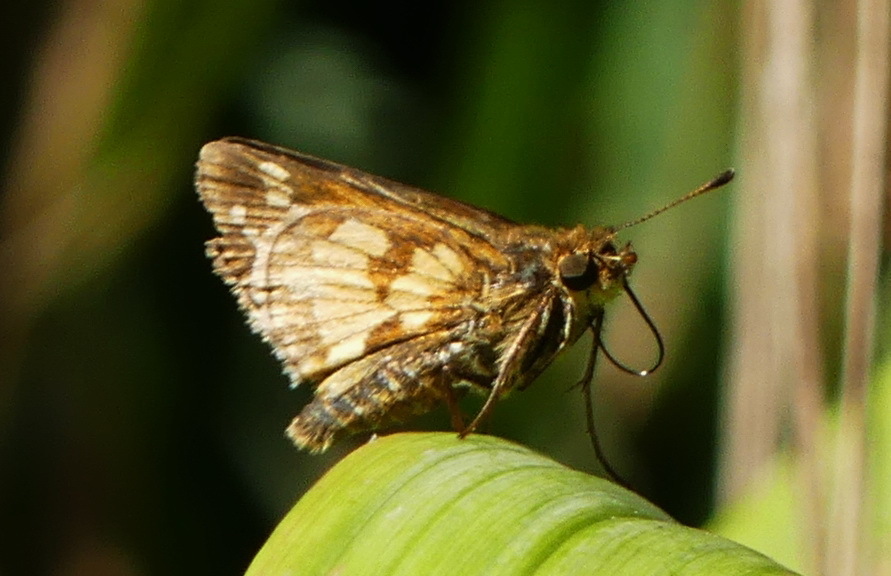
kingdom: Animalia
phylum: Arthropoda
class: Insecta
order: Lepidoptera
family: Hesperiidae
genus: Polites
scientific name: Polites coras
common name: Peck's skipper
